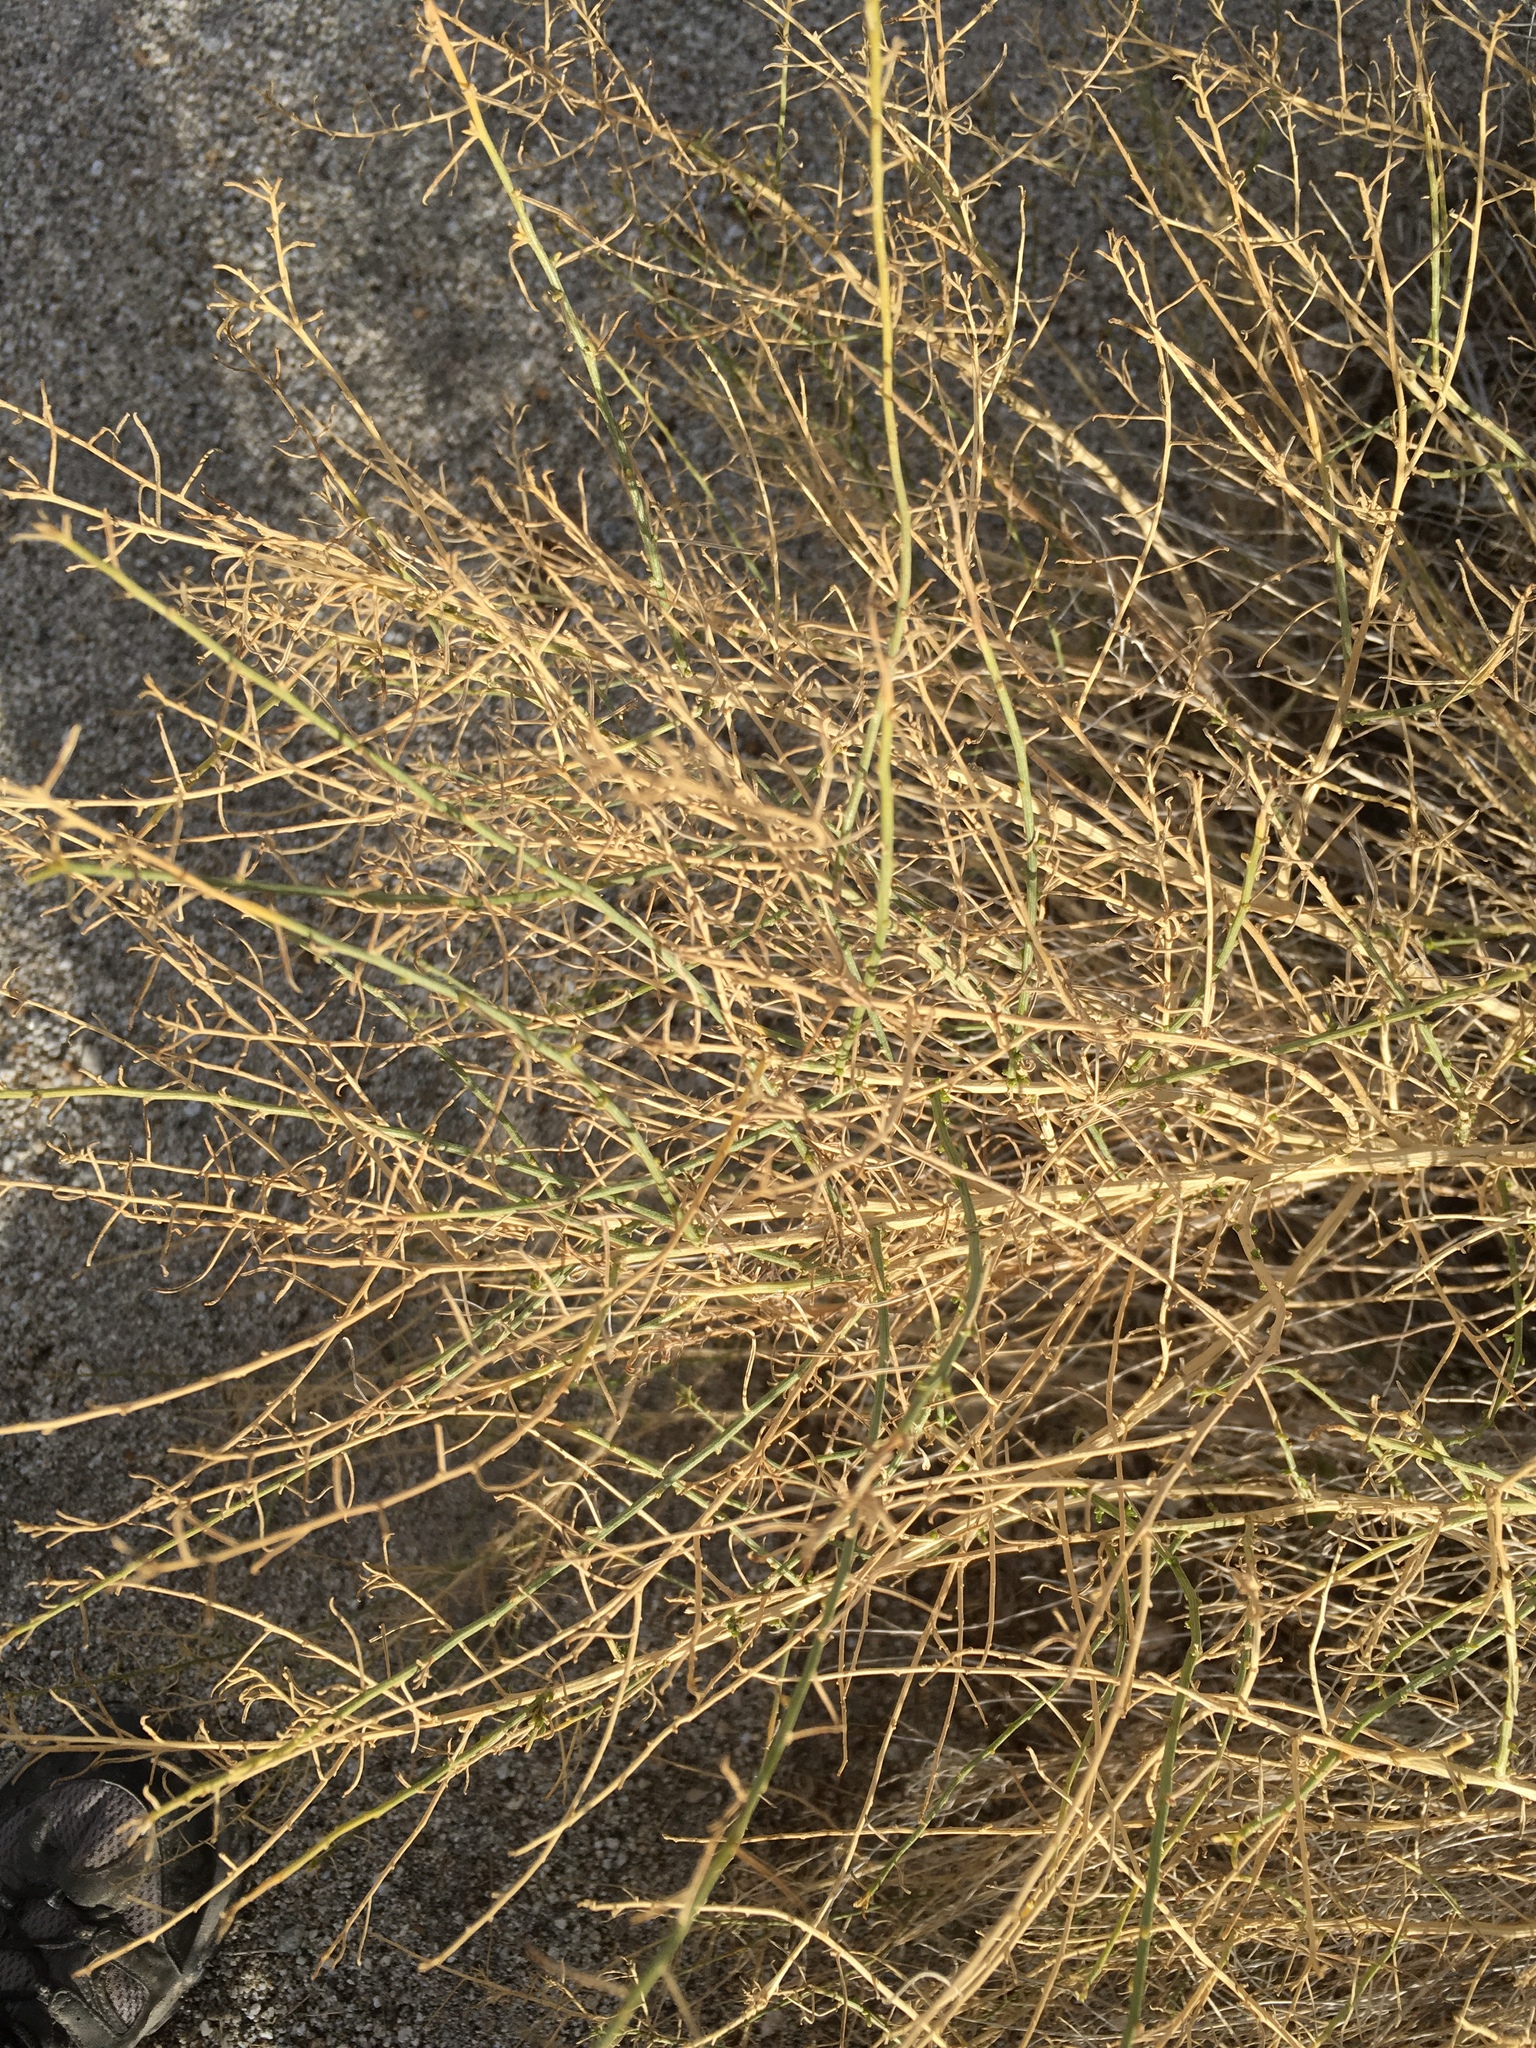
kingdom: Plantae
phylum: Tracheophyta
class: Magnoliopsida
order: Asterales
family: Asteraceae
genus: Ambrosia
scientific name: Ambrosia salsola
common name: Burrobrush
